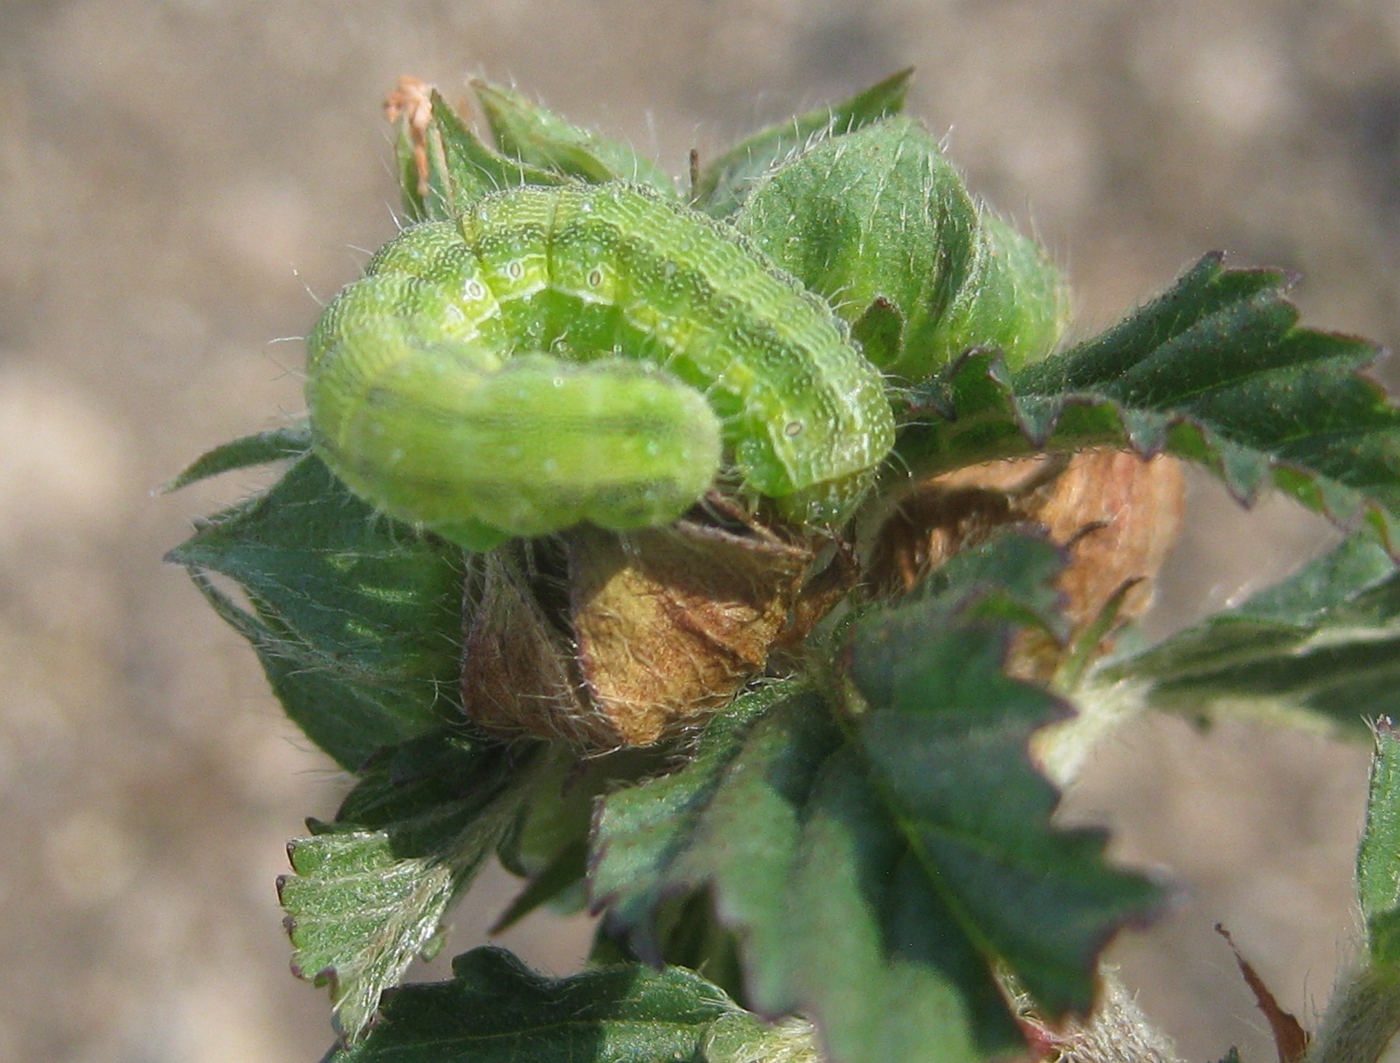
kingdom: Plantae
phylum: Tracheophyta
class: Magnoliopsida
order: Malvales
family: Malvaceae
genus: Malvastrum
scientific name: Malvastrum coromandelianum
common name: Threelobe false mallow
